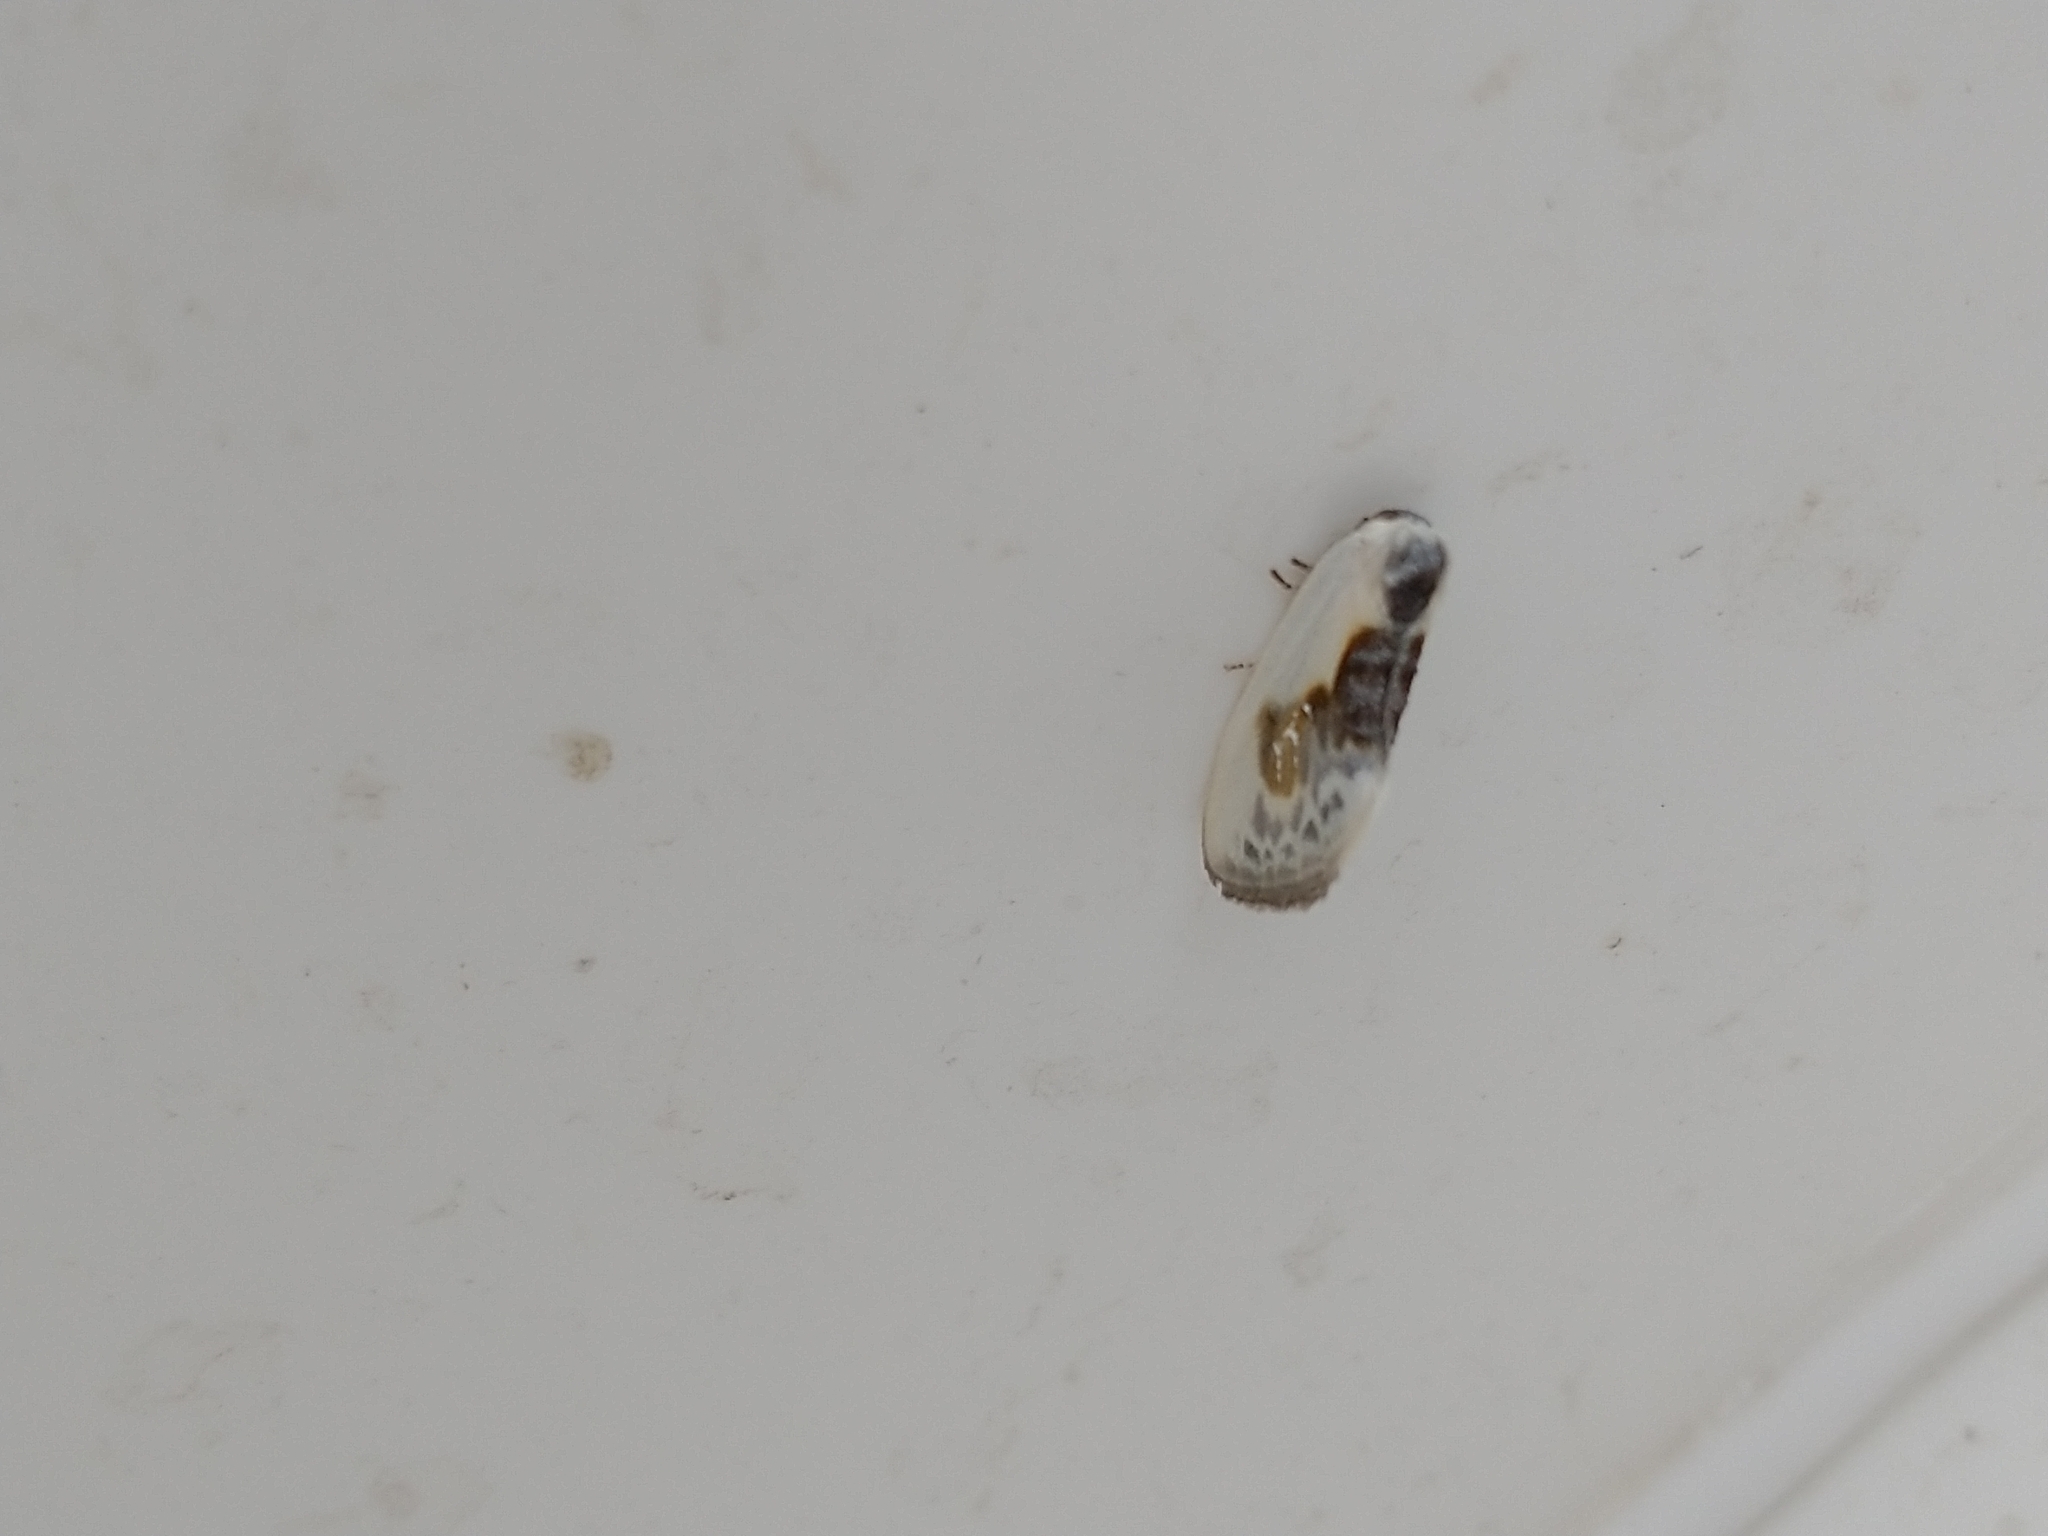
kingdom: Animalia
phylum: Arthropoda
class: Insecta
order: Lepidoptera
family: Drepanidae
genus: Cilix
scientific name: Cilix glaucata
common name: Chinese character
